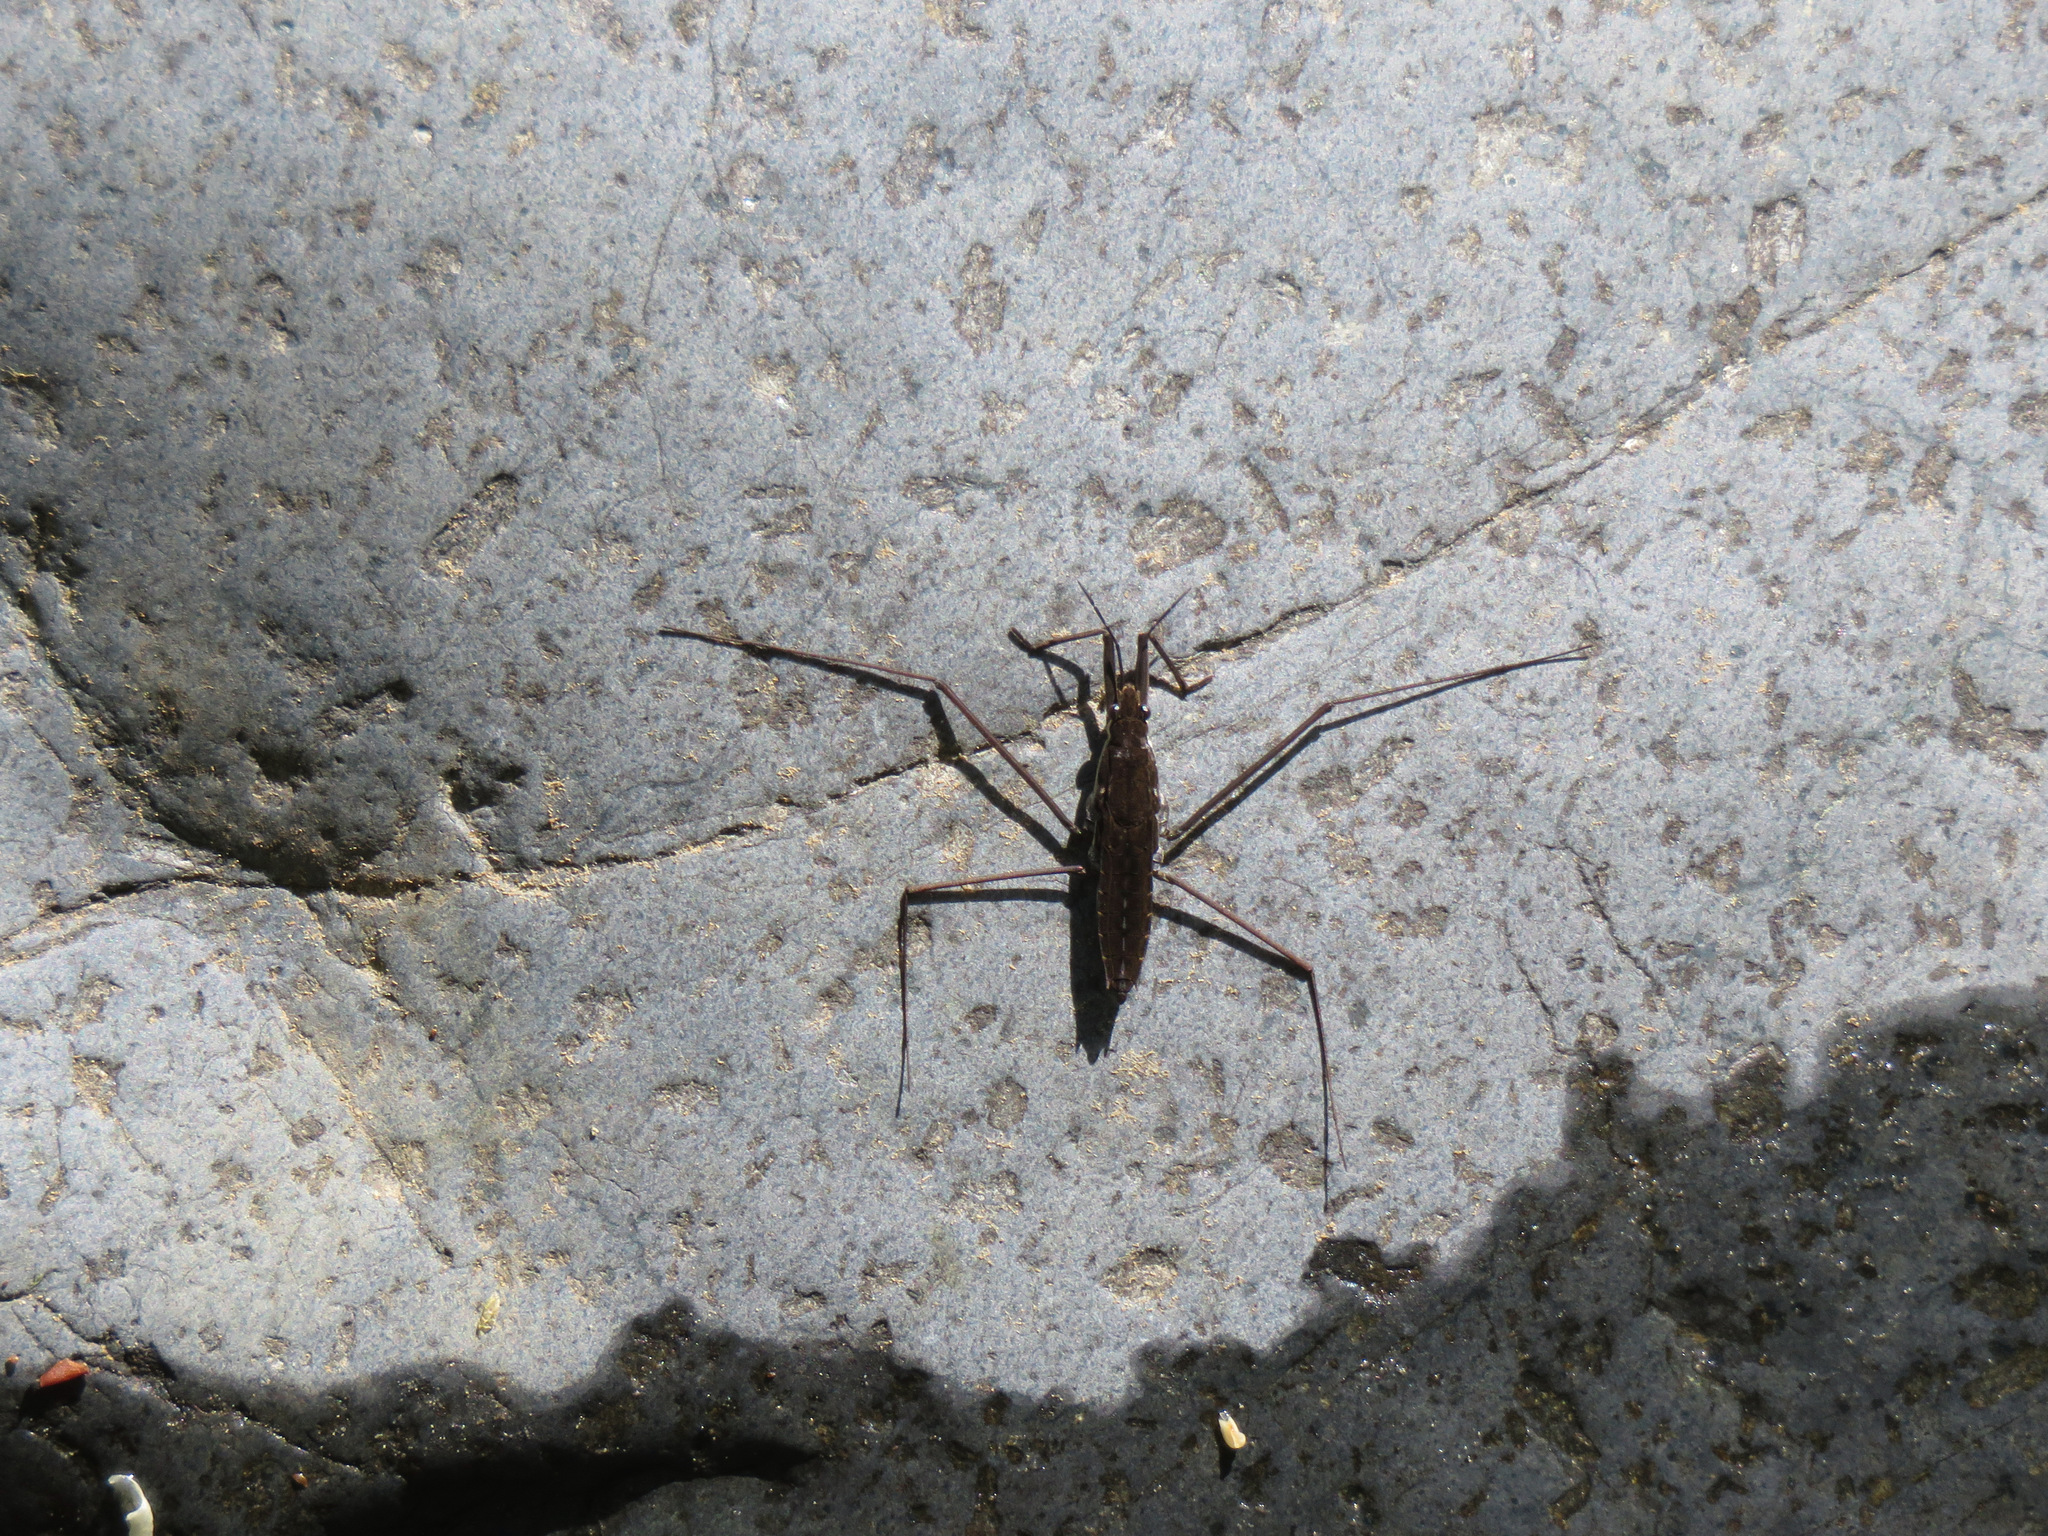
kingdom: Animalia
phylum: Arthropoda
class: Insecta
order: Hemiptera
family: Gerridae
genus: Aquarius
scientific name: Aquarius remigis
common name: Common water strider
